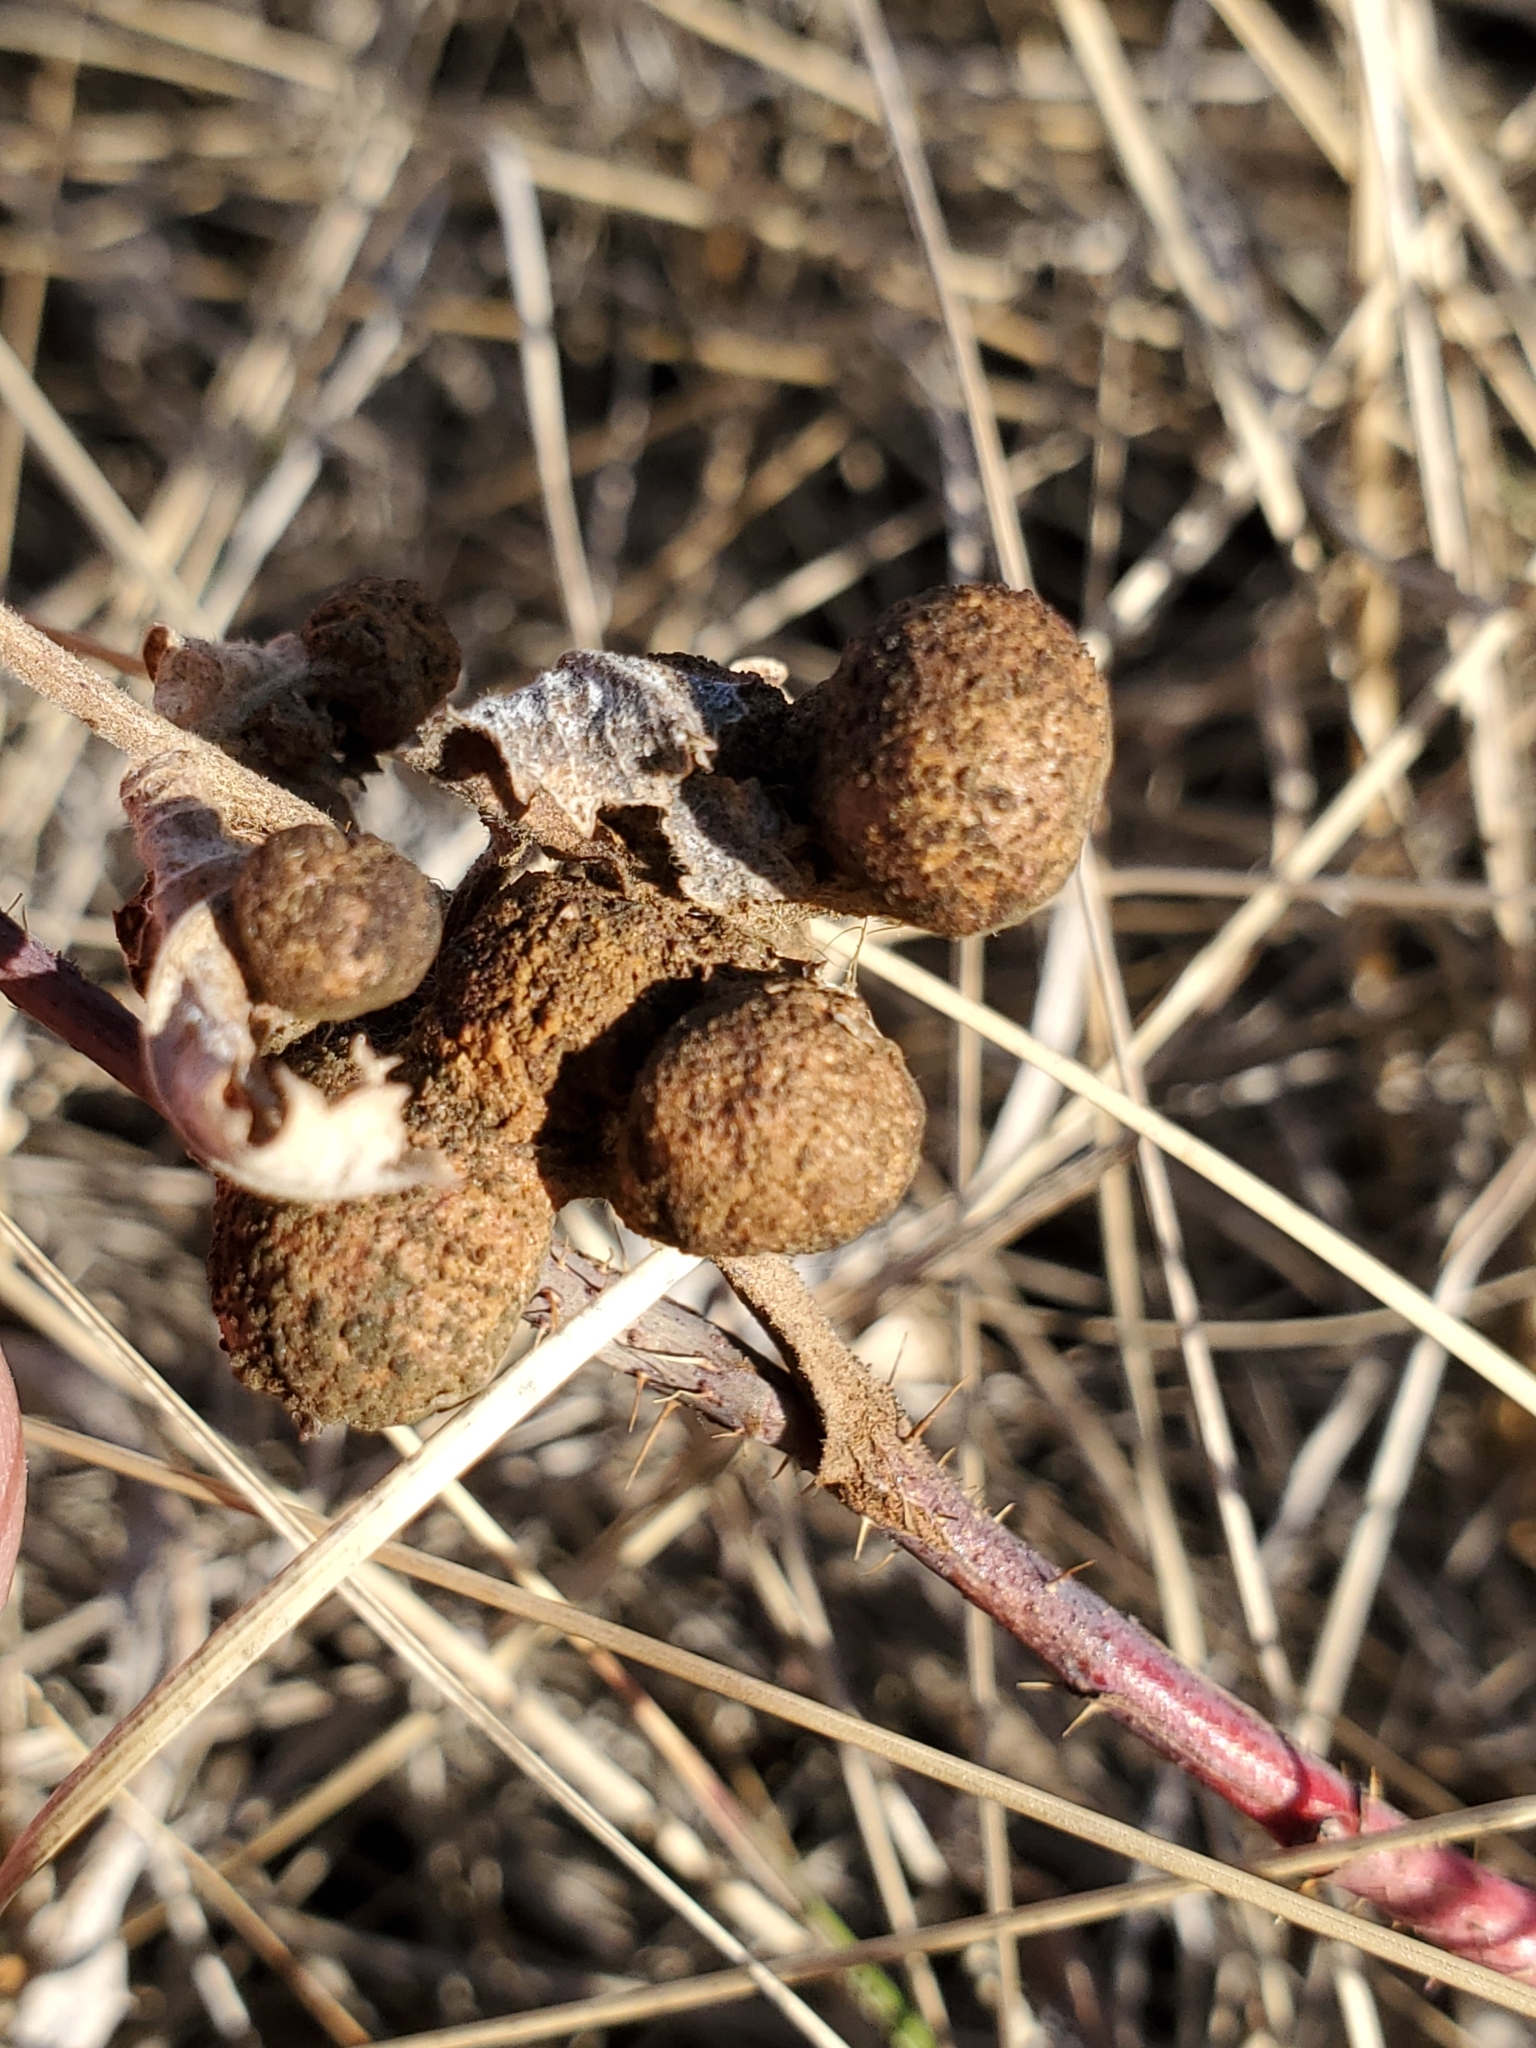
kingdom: Animalia
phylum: Arthropoda
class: Insecta
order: Hymenoptera
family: Cynipidae
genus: Diplolepis
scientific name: Diplolepis ignota
